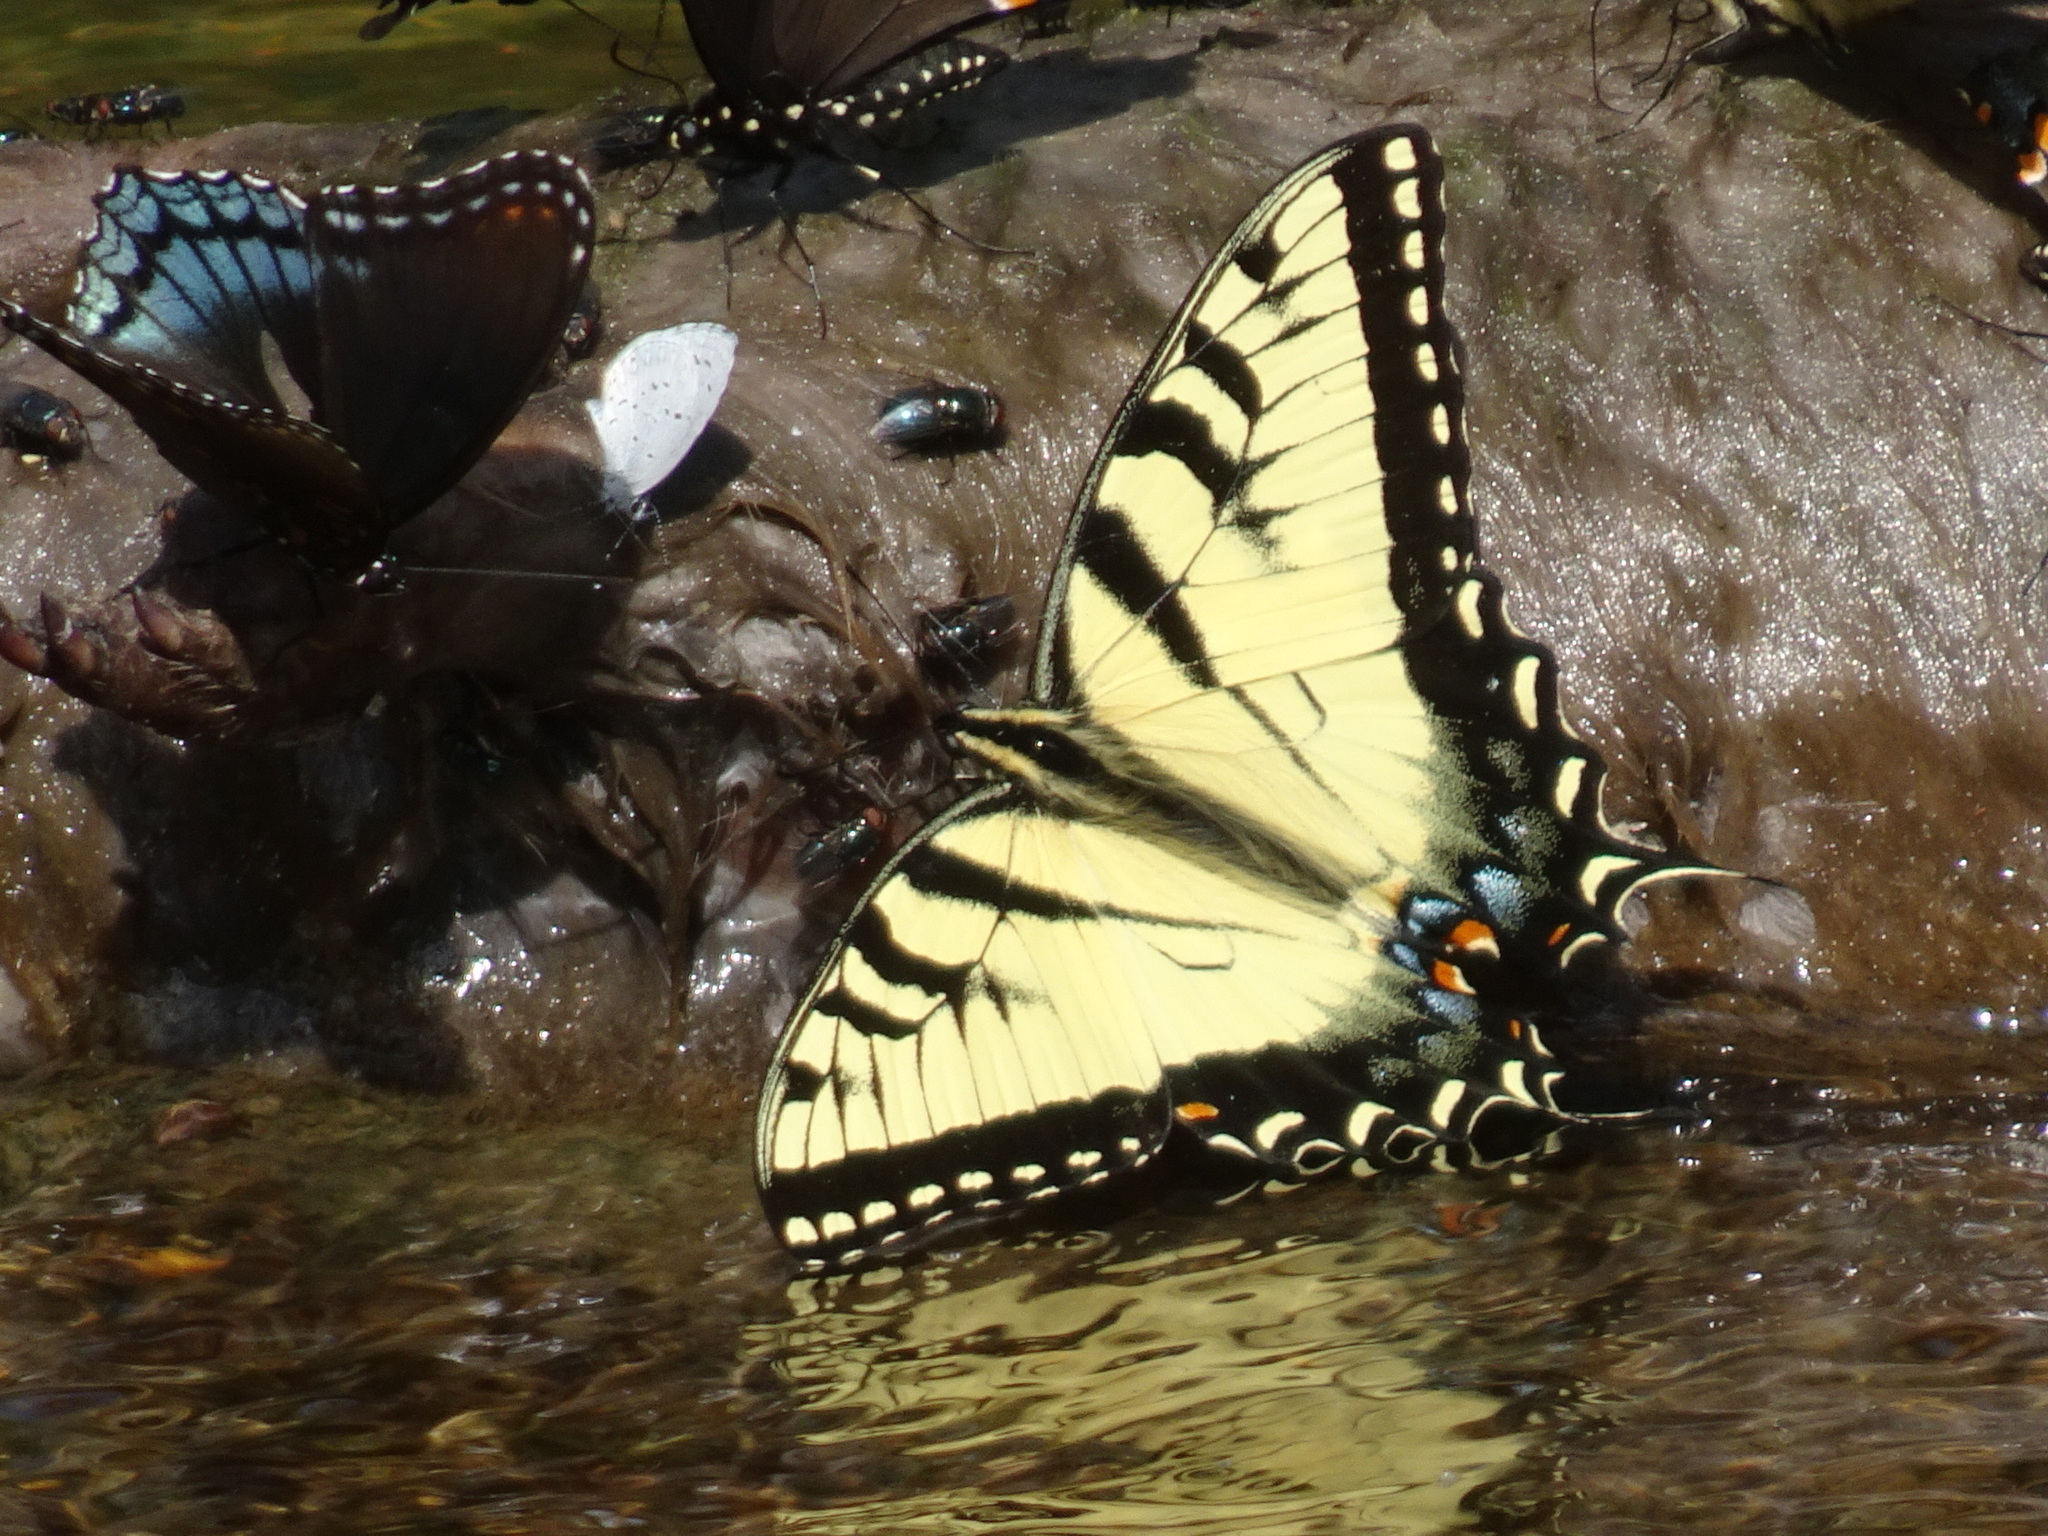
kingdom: Animalia
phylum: Arthropoda
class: Insecta
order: Lepidoptera
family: Papilionidae
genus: Papilio
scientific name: Papilio glaucus
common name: Tiger swallowtail
